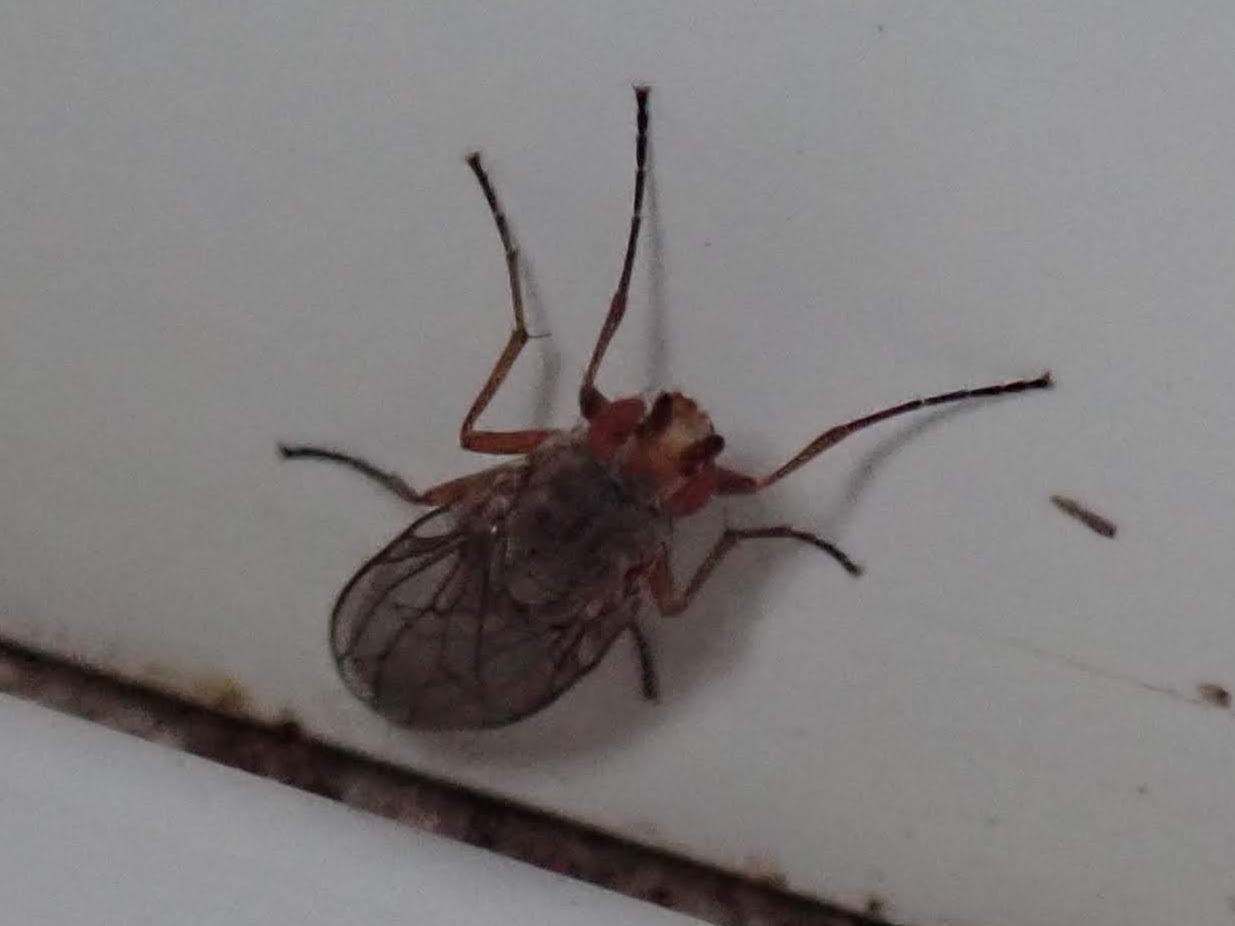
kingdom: Animalia
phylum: Arthropoda
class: Insecta
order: Diptera
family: Heleomyzidae
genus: Tephrochlamys
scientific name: Tephrochlamys flavipes
